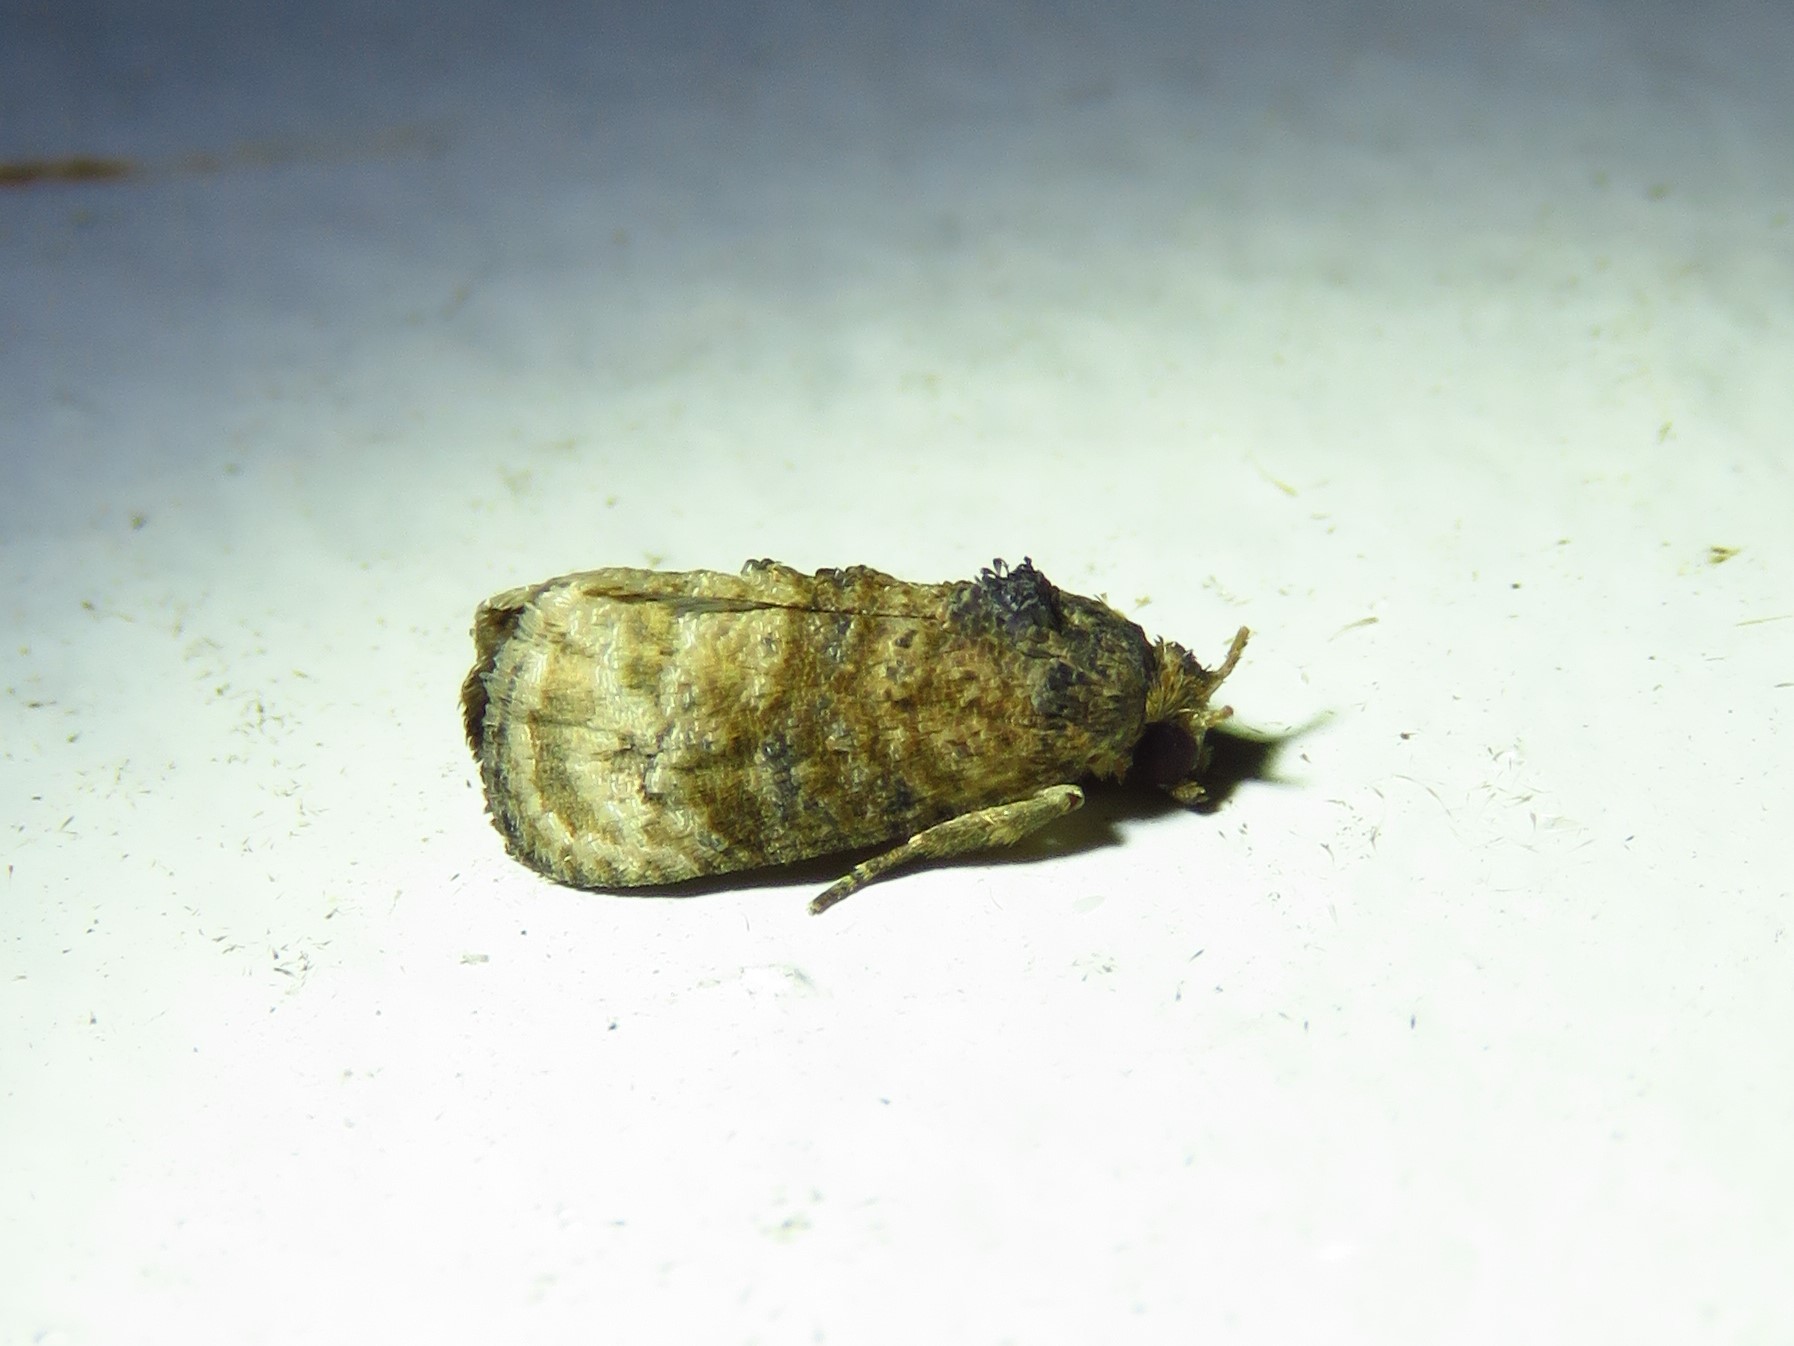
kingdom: Animalia
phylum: Arthropoda
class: Insecta
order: Lepidoptera
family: Tortricidae
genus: Ecdytolopha
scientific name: Ecdytolopha mana
